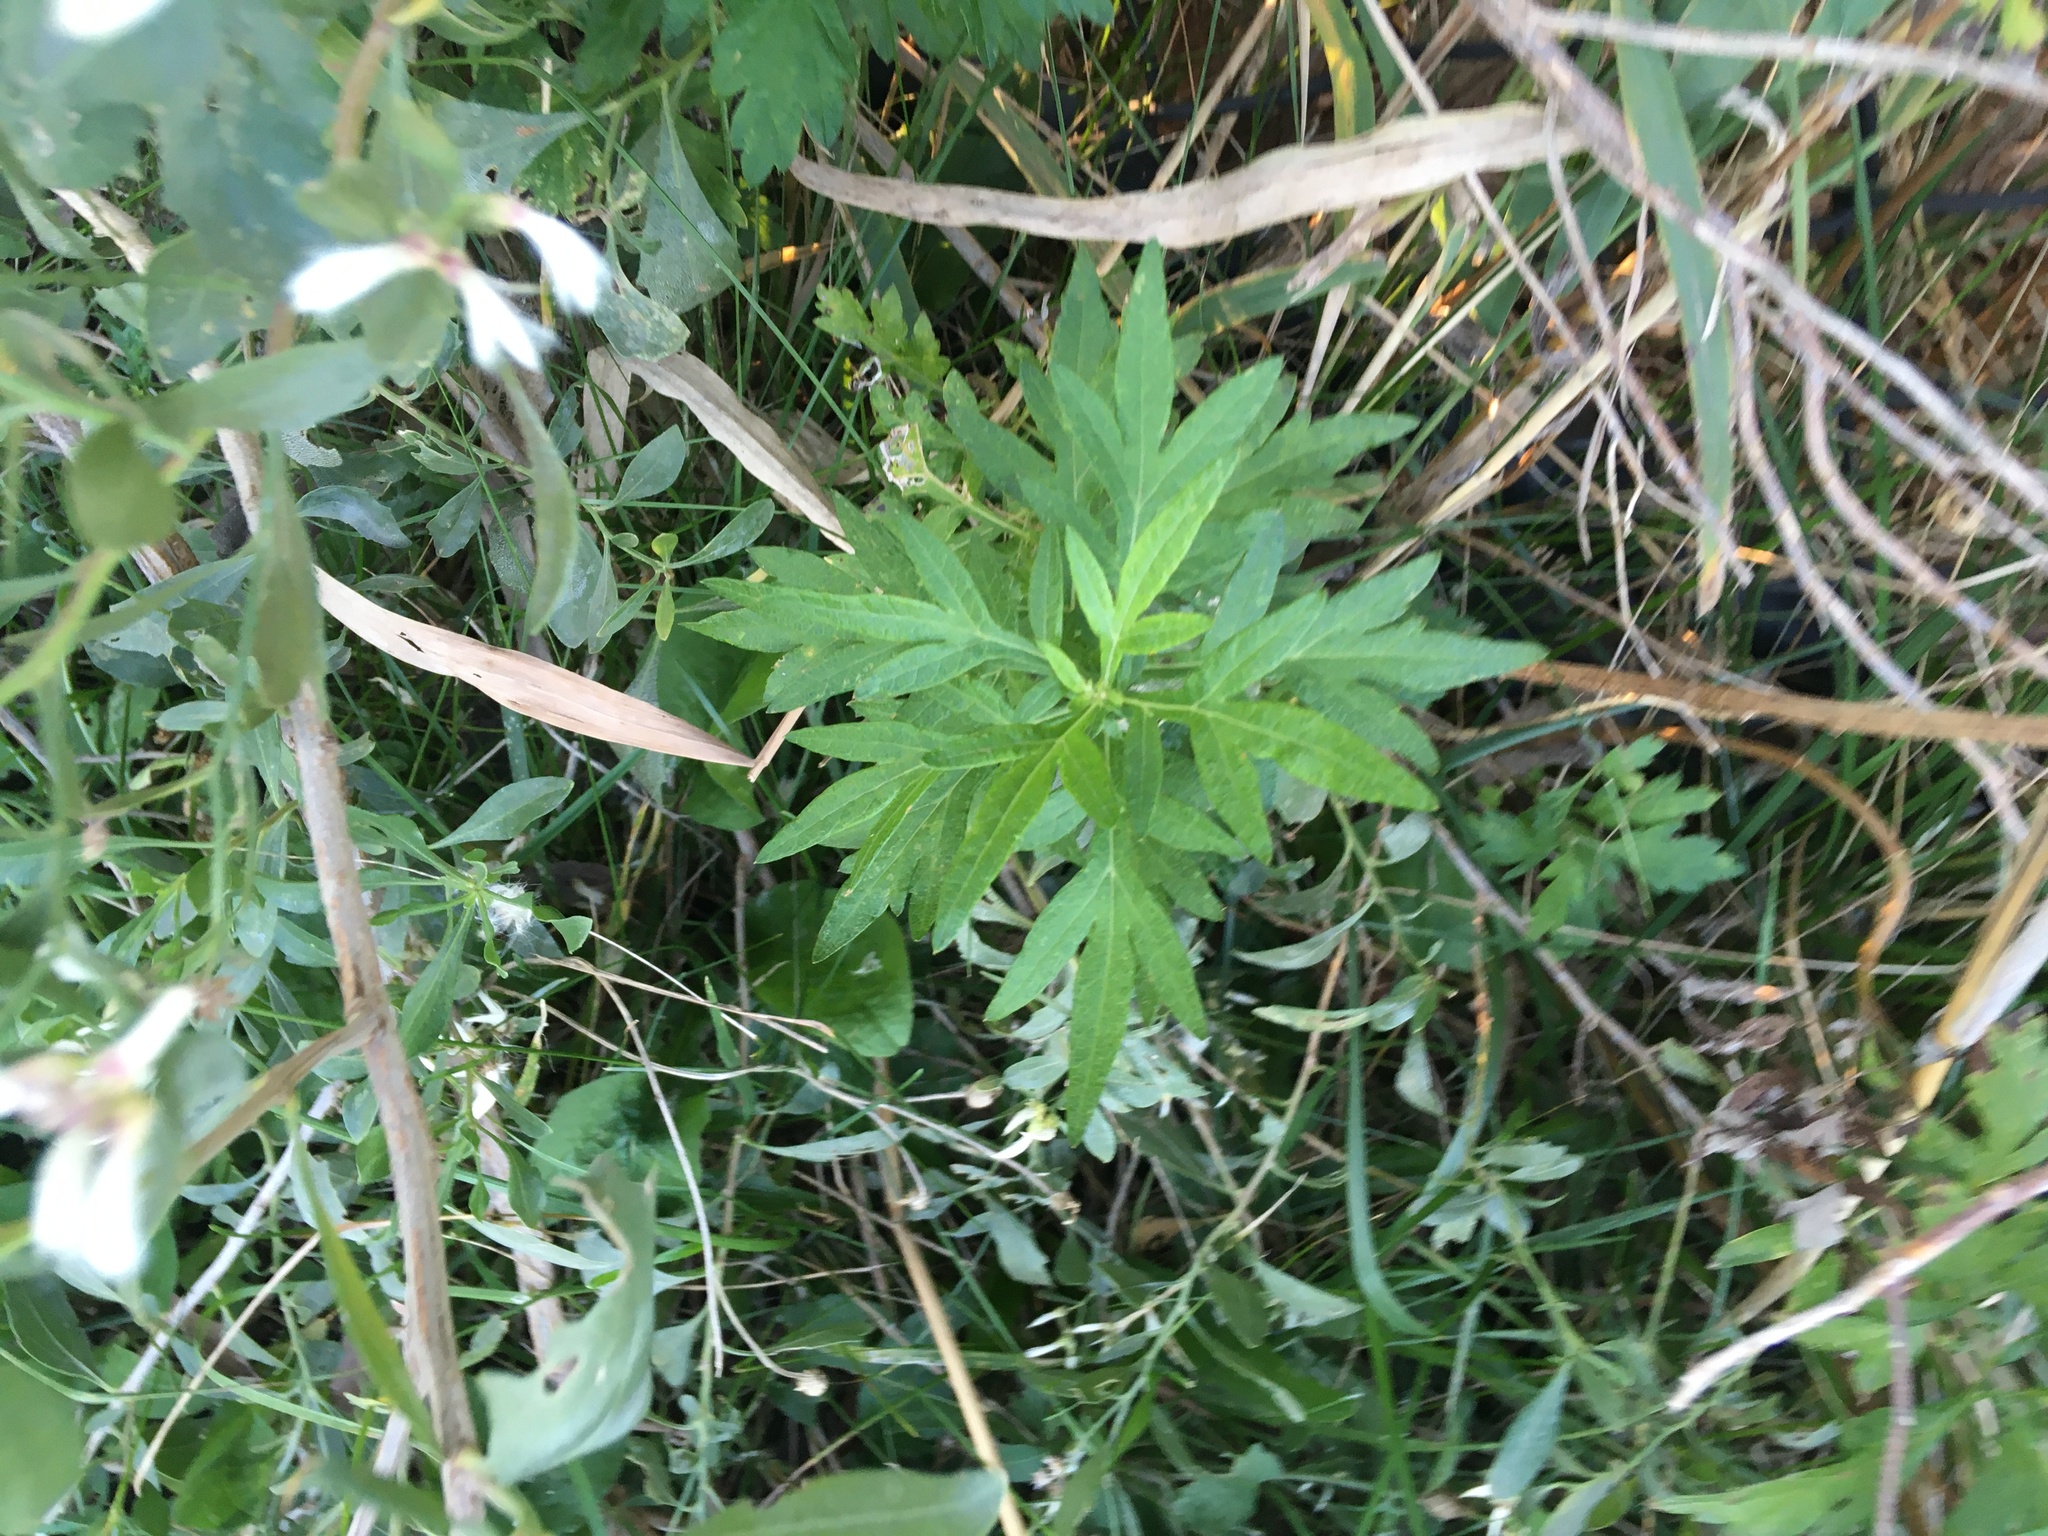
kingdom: Plantae
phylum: Tracheophyta
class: Magnoliopsida
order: Asterales
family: Asteraceae
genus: Artemisia
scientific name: Artemisia vulgaris
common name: Mugwort
